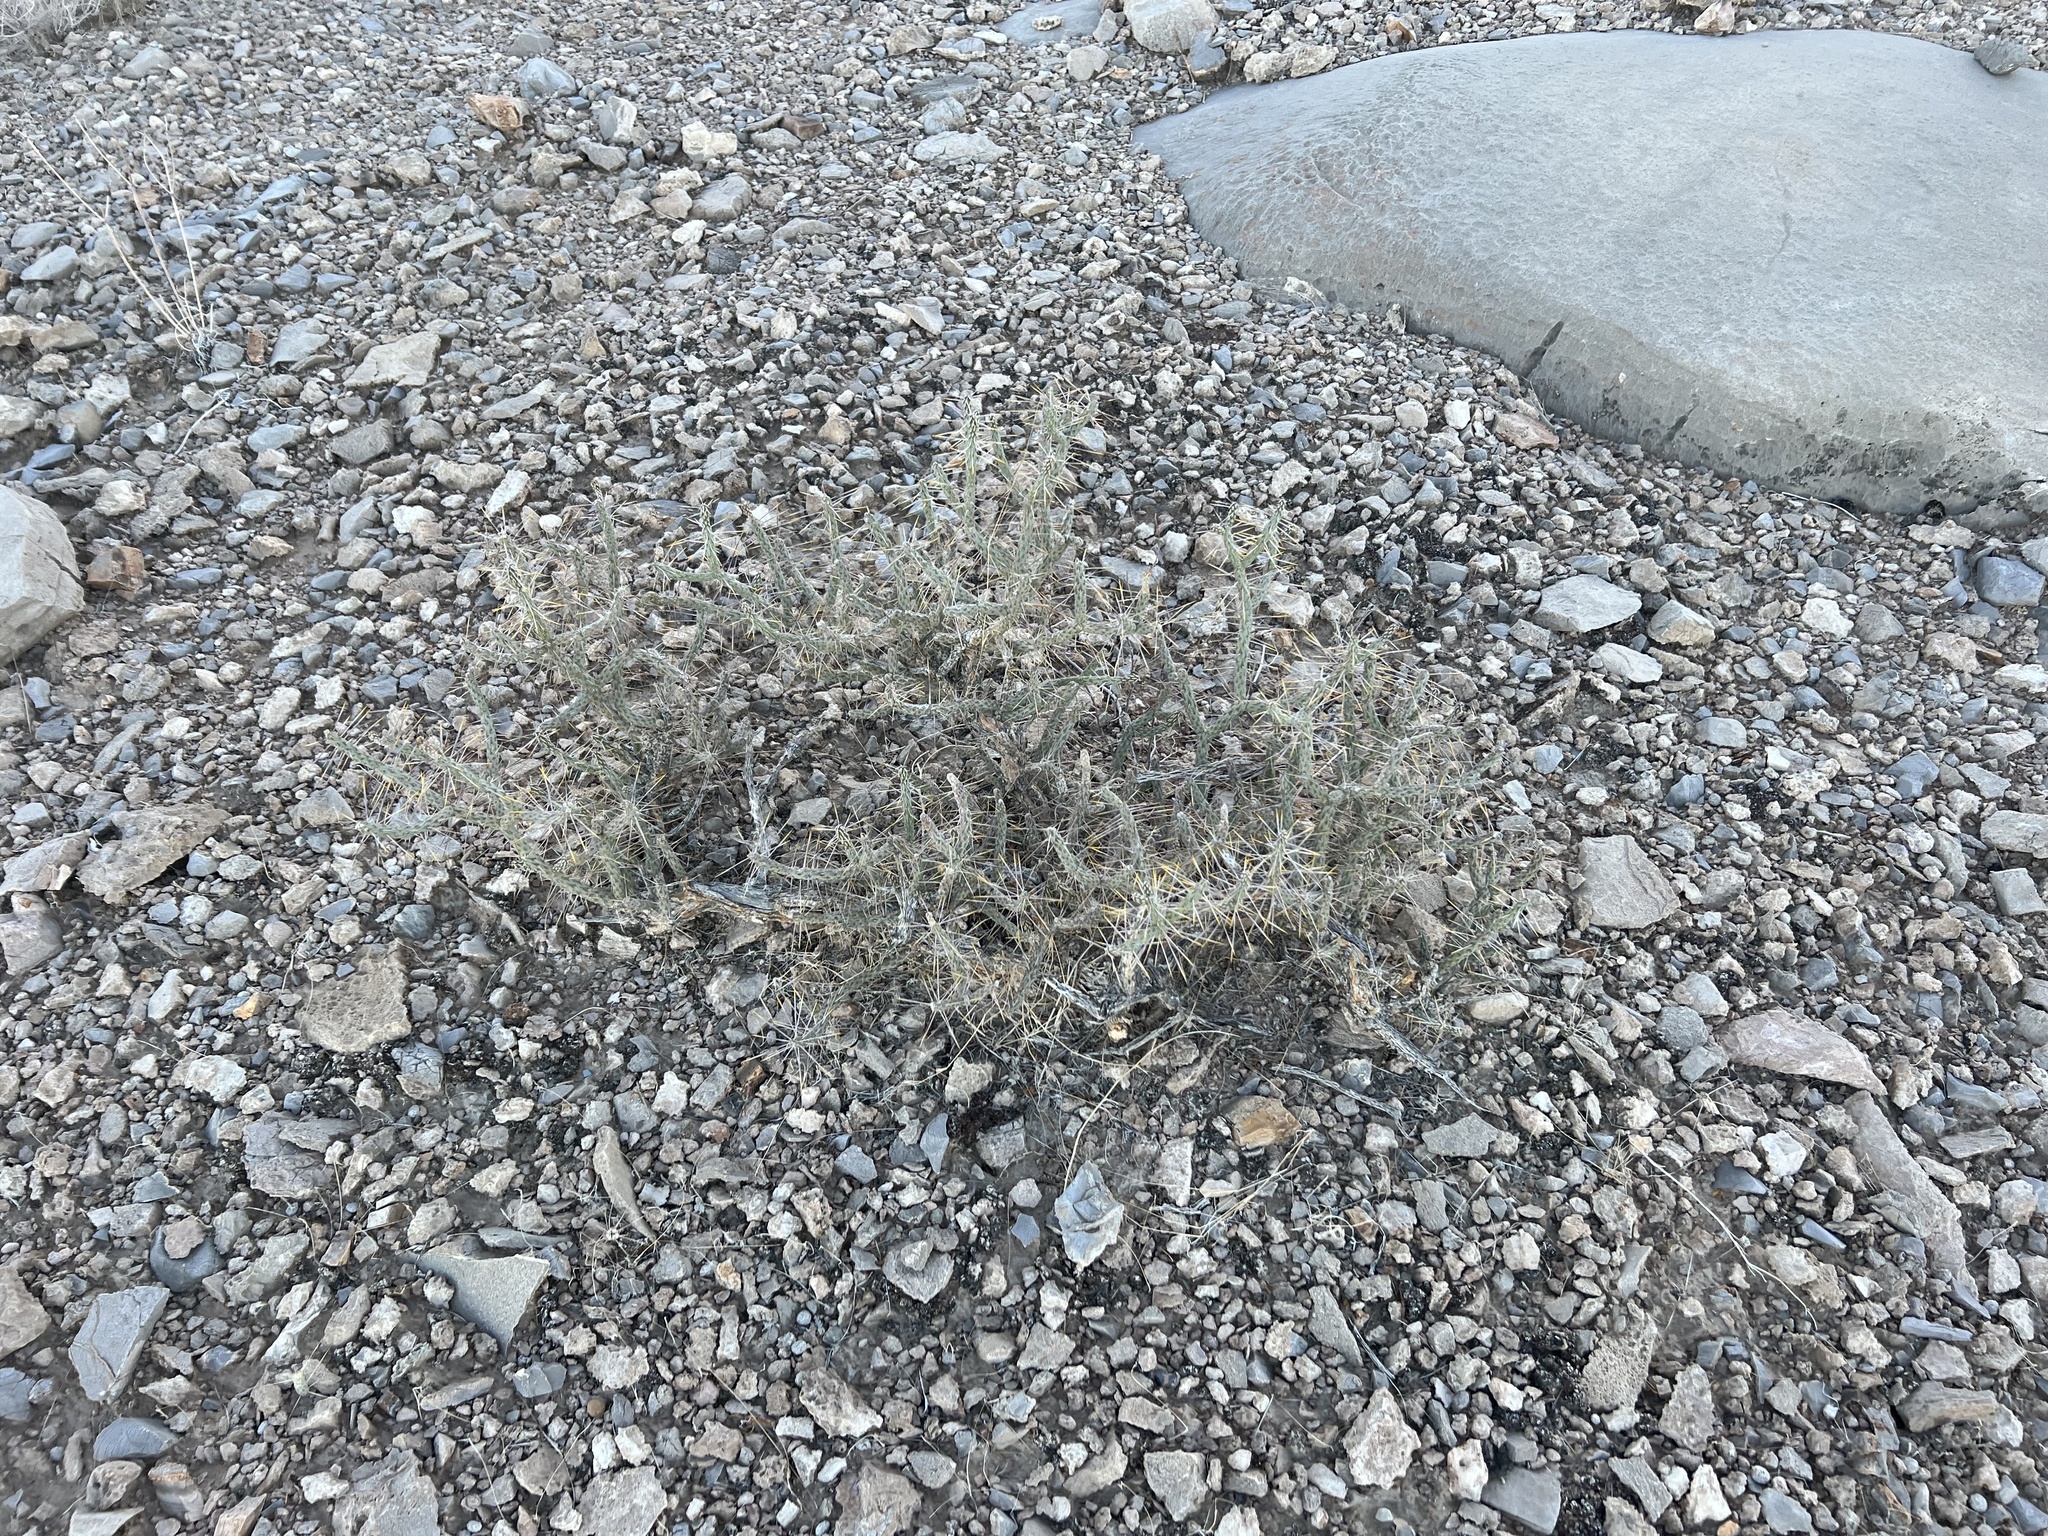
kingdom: Plantae
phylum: Tracheophyta
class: Magnoliopsida
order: Caryophyllales
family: Cactaceae
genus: Cylindropuntia
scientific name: Cylindropuntia ramosissima
